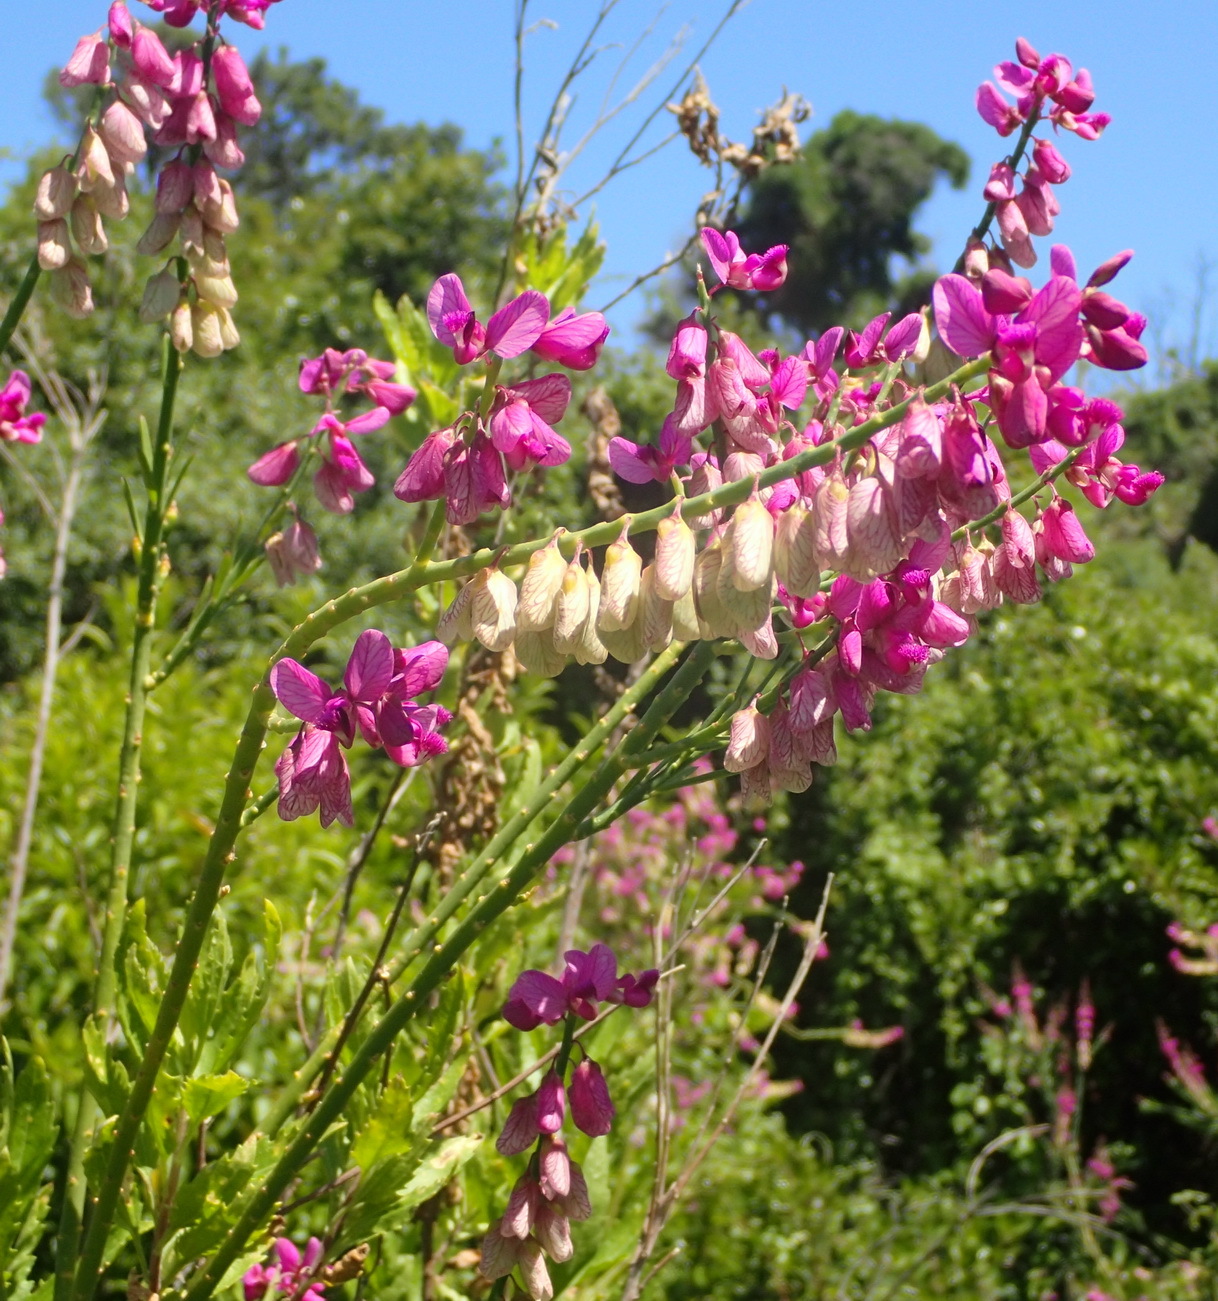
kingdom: Plantae
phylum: Tracheophyta
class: Magnoliopsida
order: Fabales
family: Polygalaceae
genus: Polygala
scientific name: Polygala virgata
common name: Milkwort
